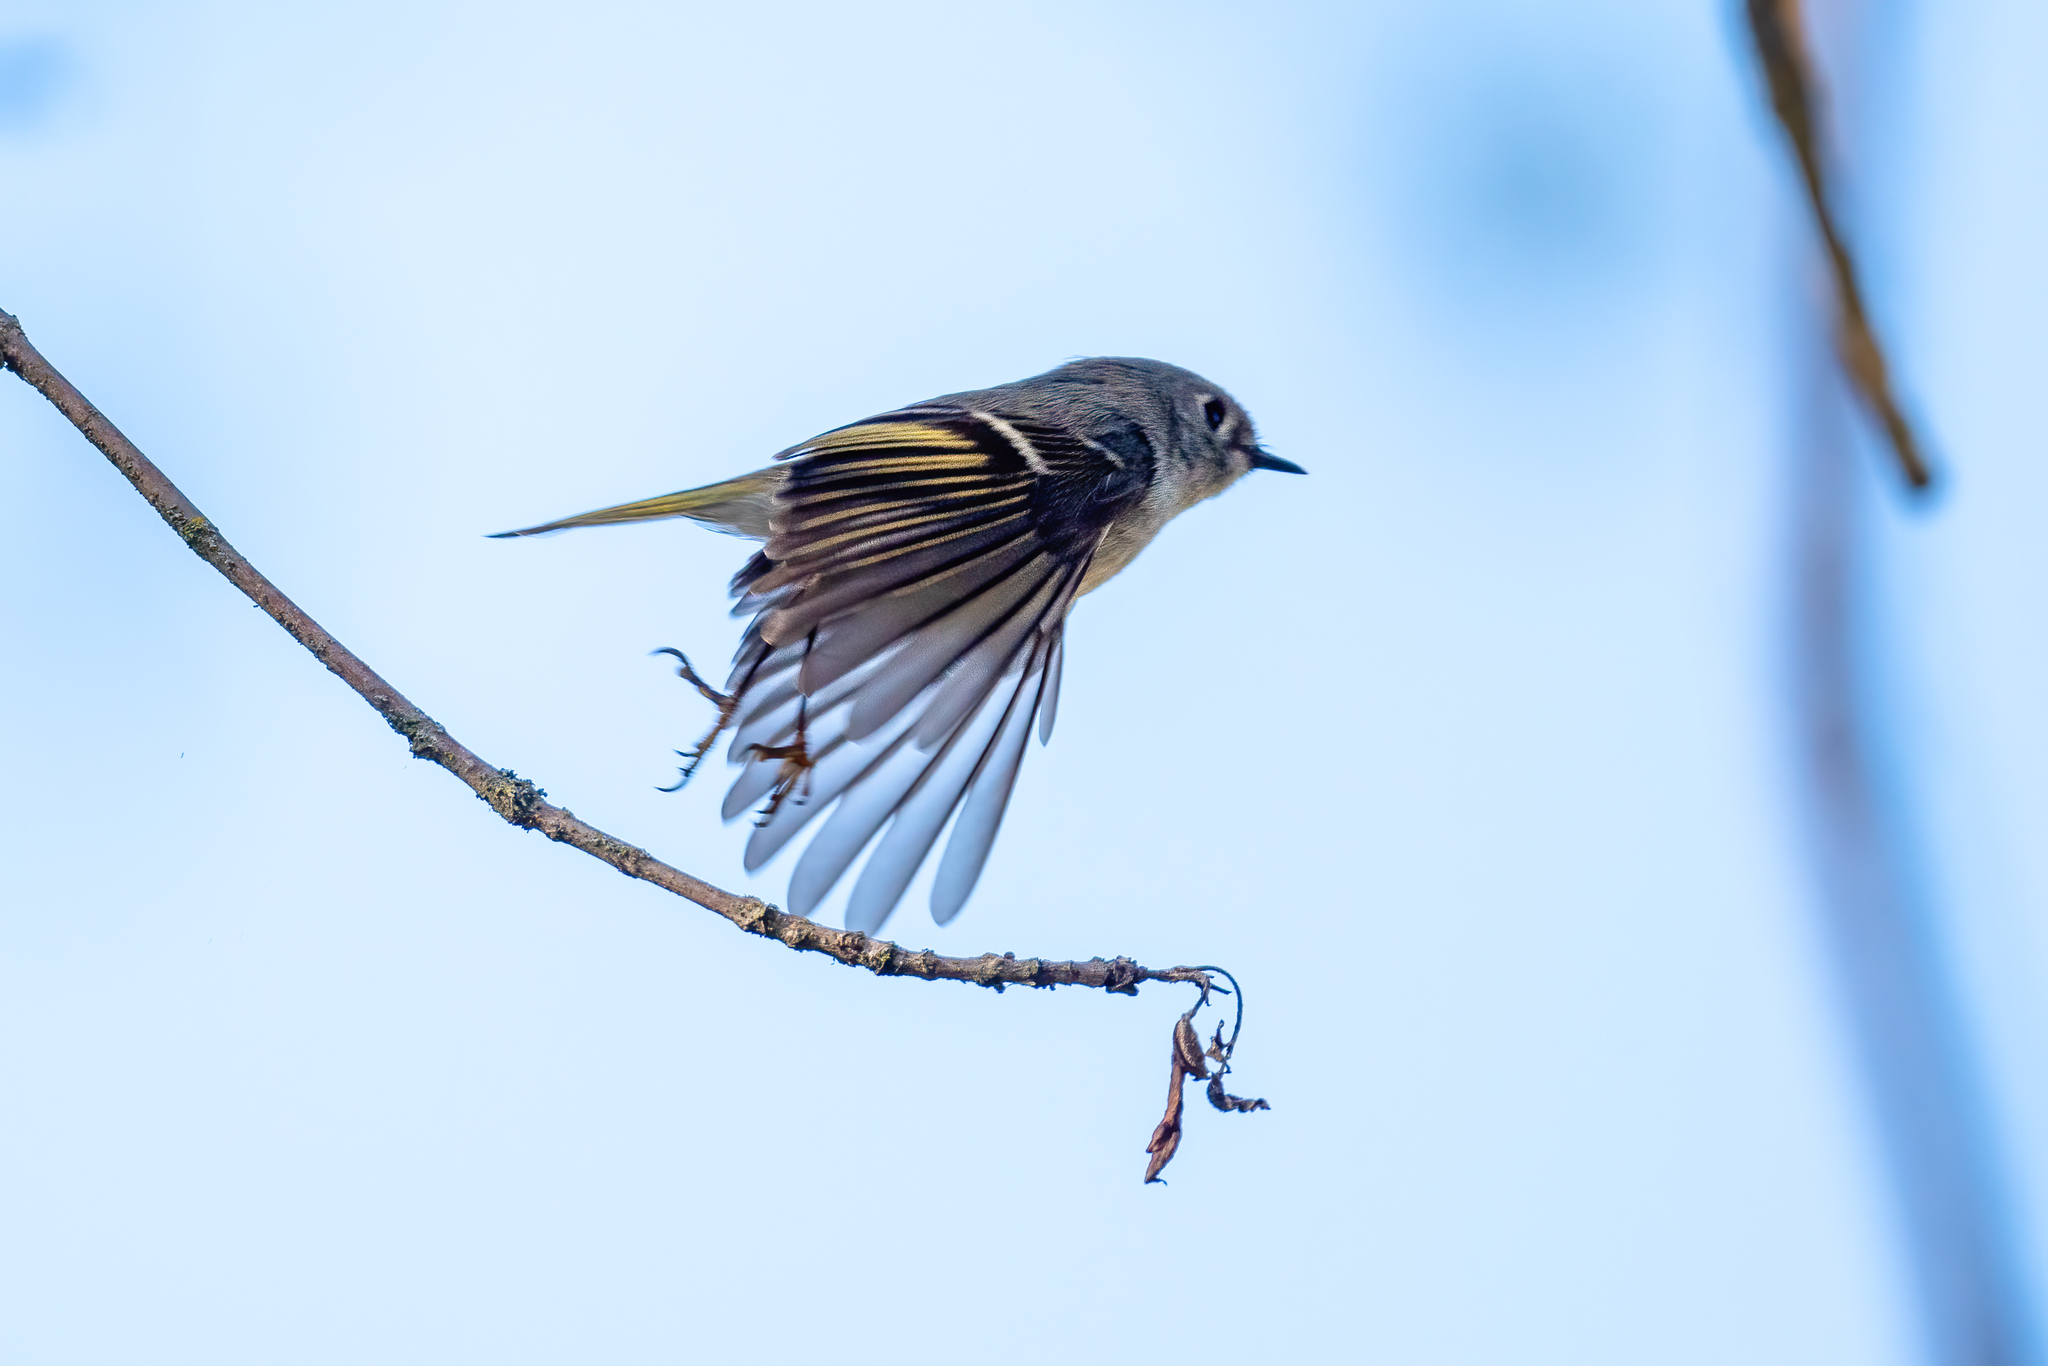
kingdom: Animalia
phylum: Chordata
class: Aves
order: Passeriformes
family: Regulidae
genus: Regulus
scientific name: Regulus calendula
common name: Ruby-crowned kinglet
